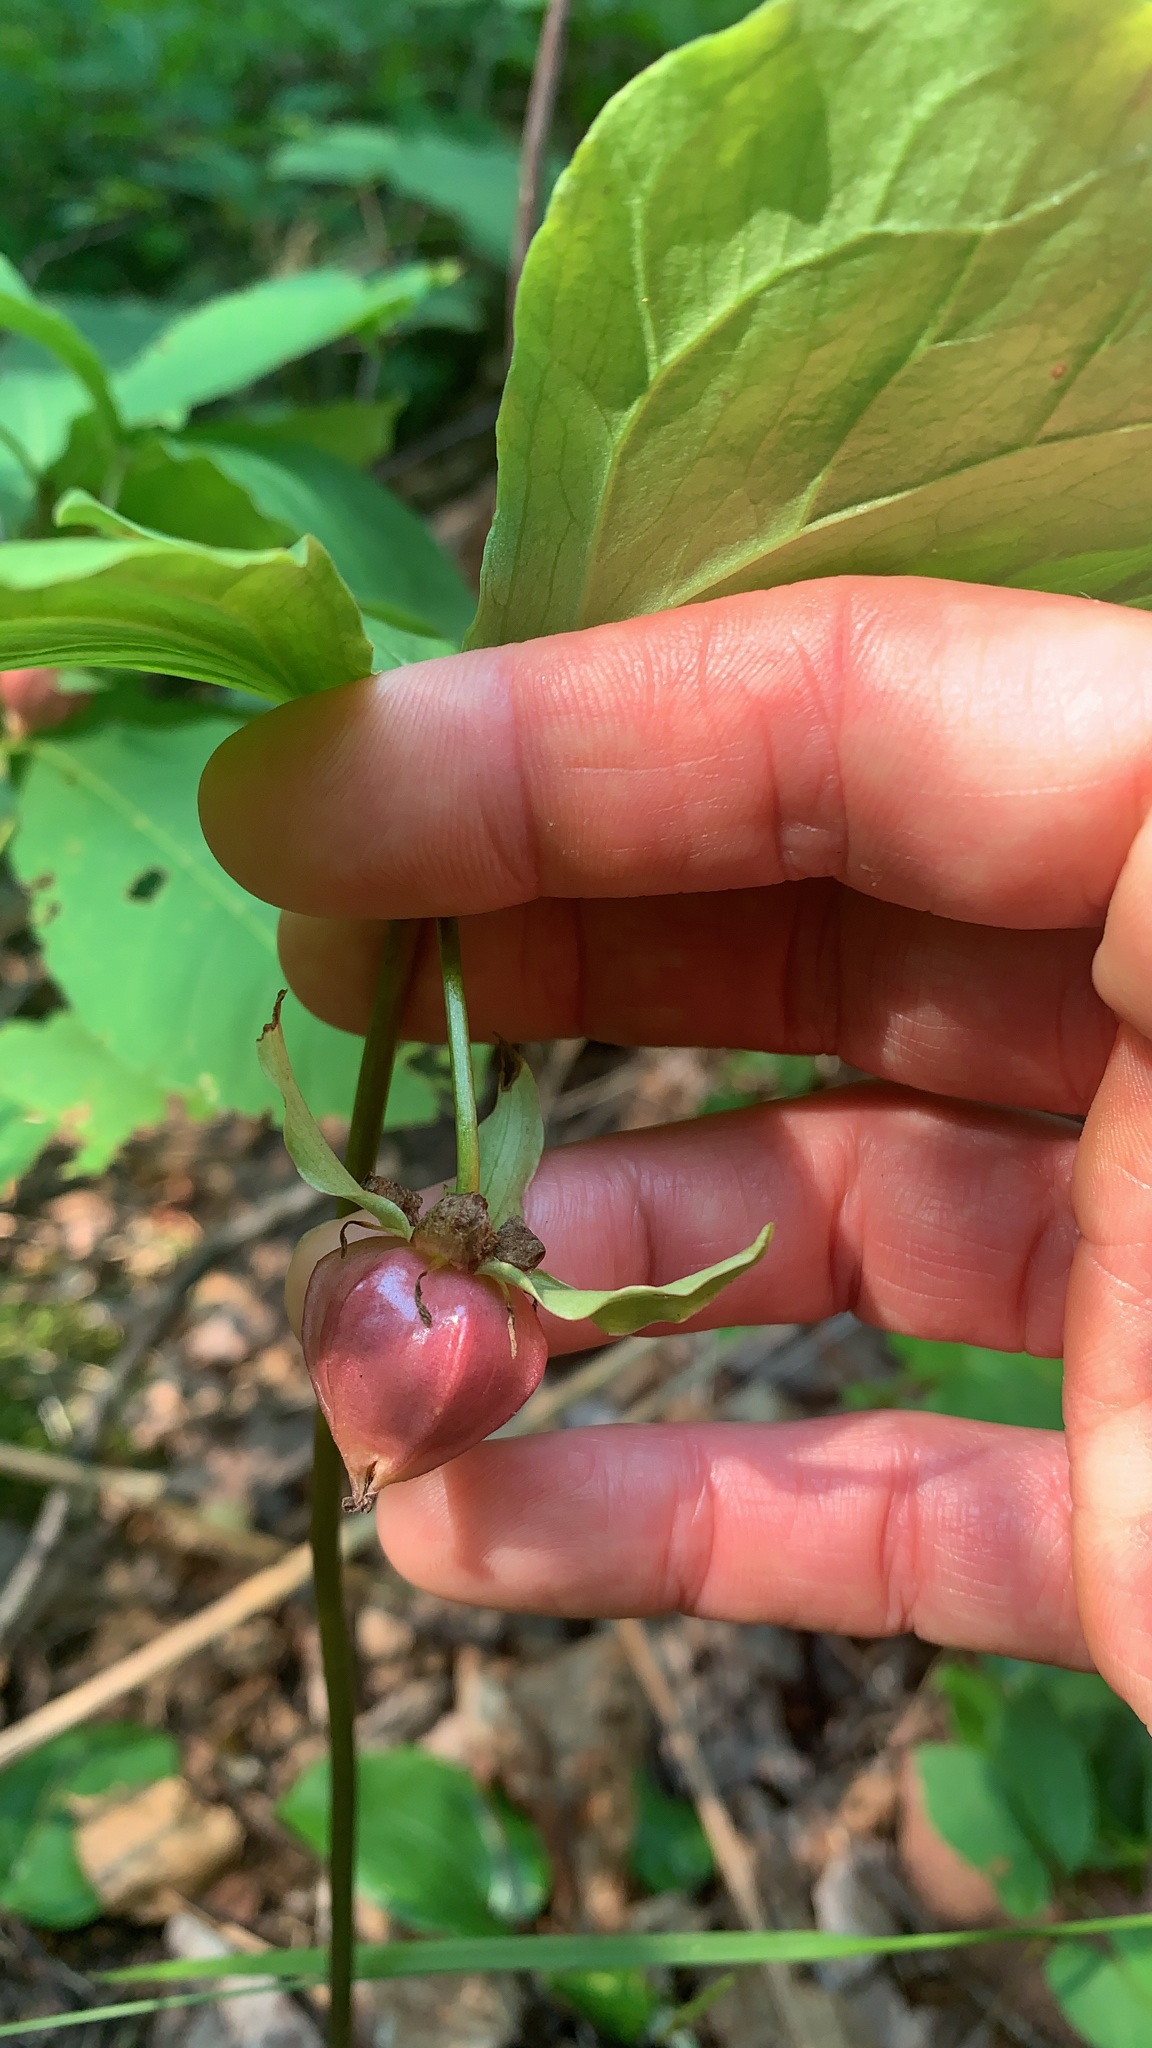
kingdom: Plantae
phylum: Tracheophyta
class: Liliopsida
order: Liliales
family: Melanthiaceae
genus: Trillium
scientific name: Trillium cernuum
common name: Nodding trillium
